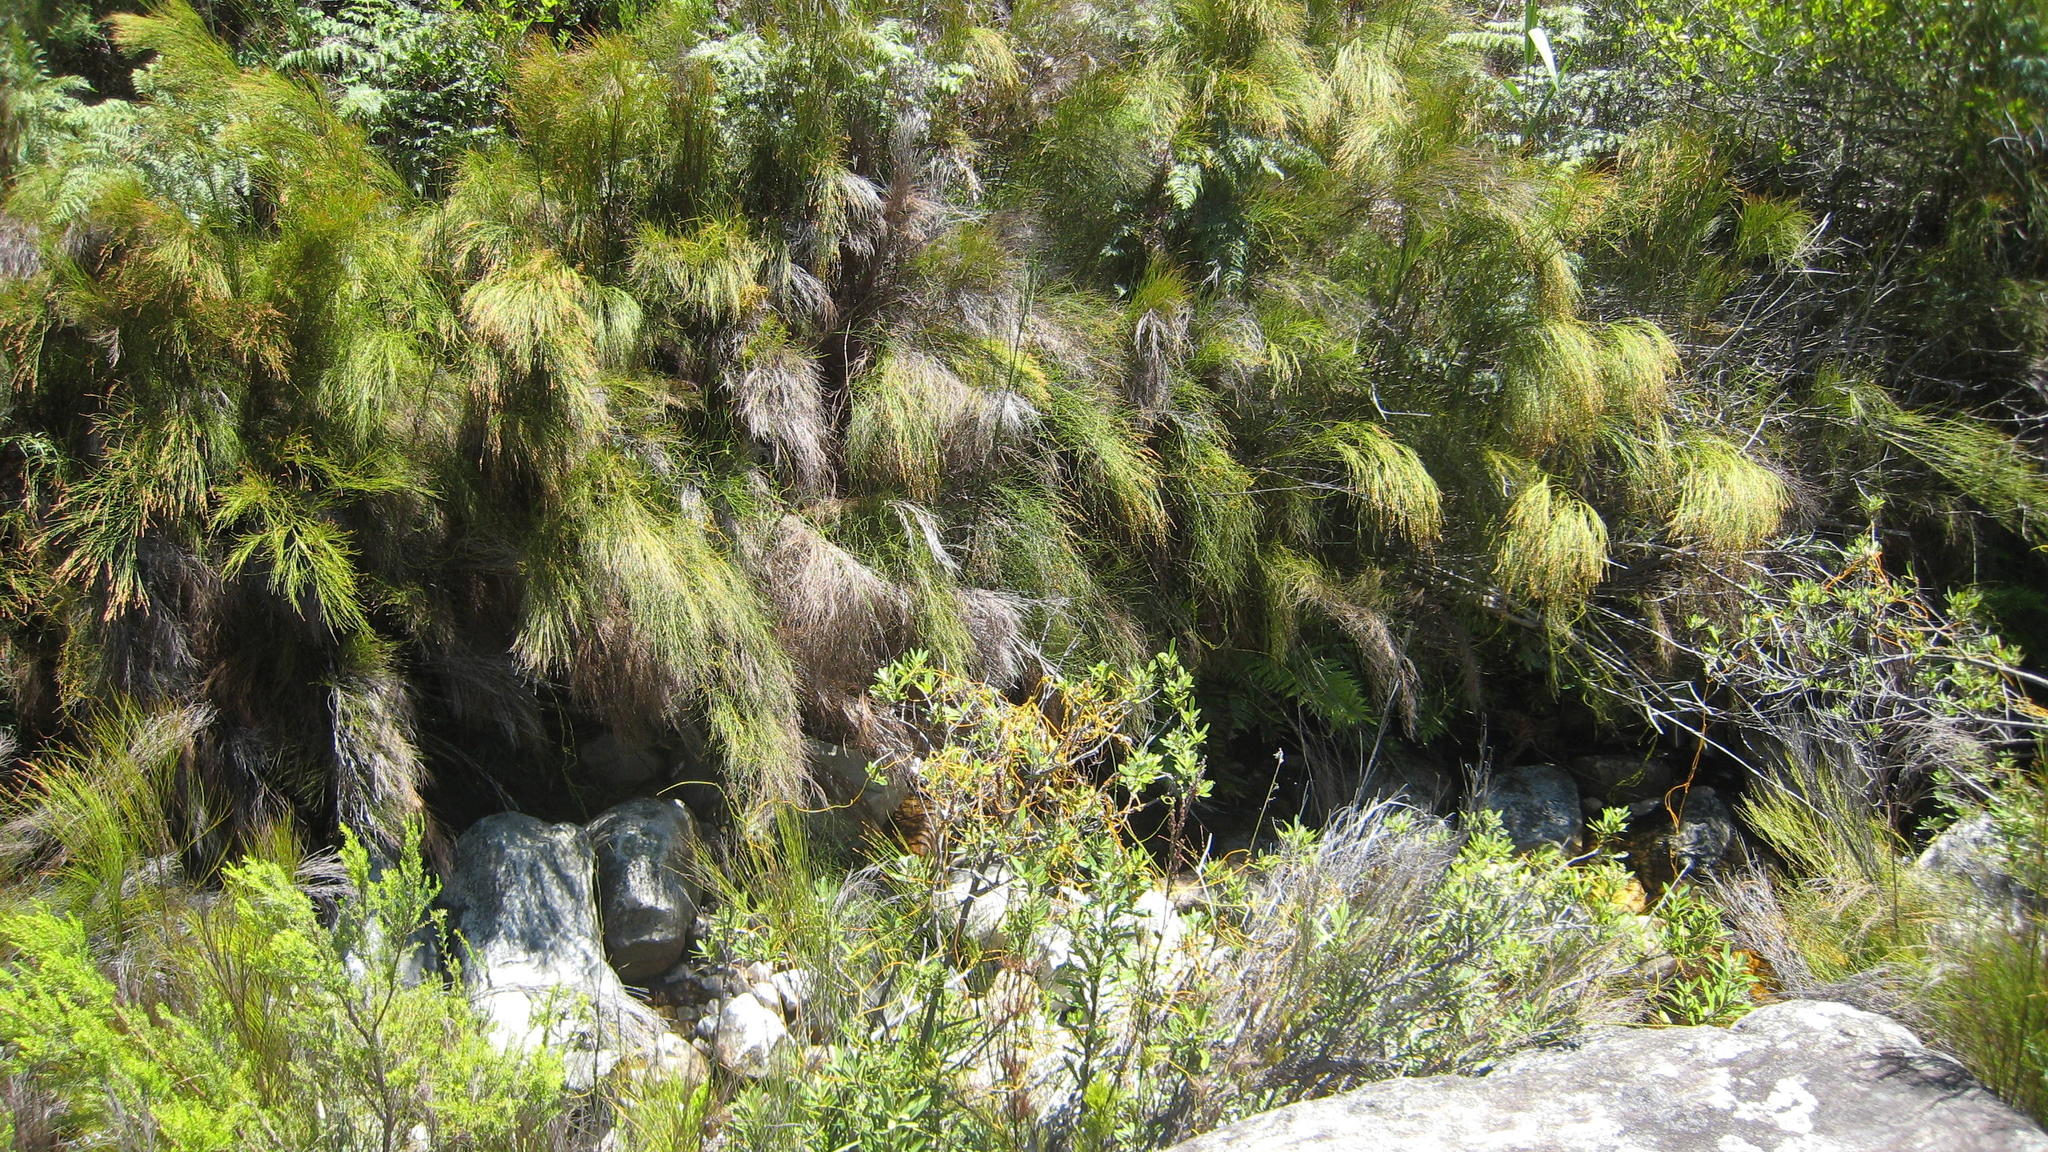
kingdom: Plantae
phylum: Tracheophyta
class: Liliopsida
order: Poales
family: Restionaceae
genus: Restio
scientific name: Restio scaberulus
